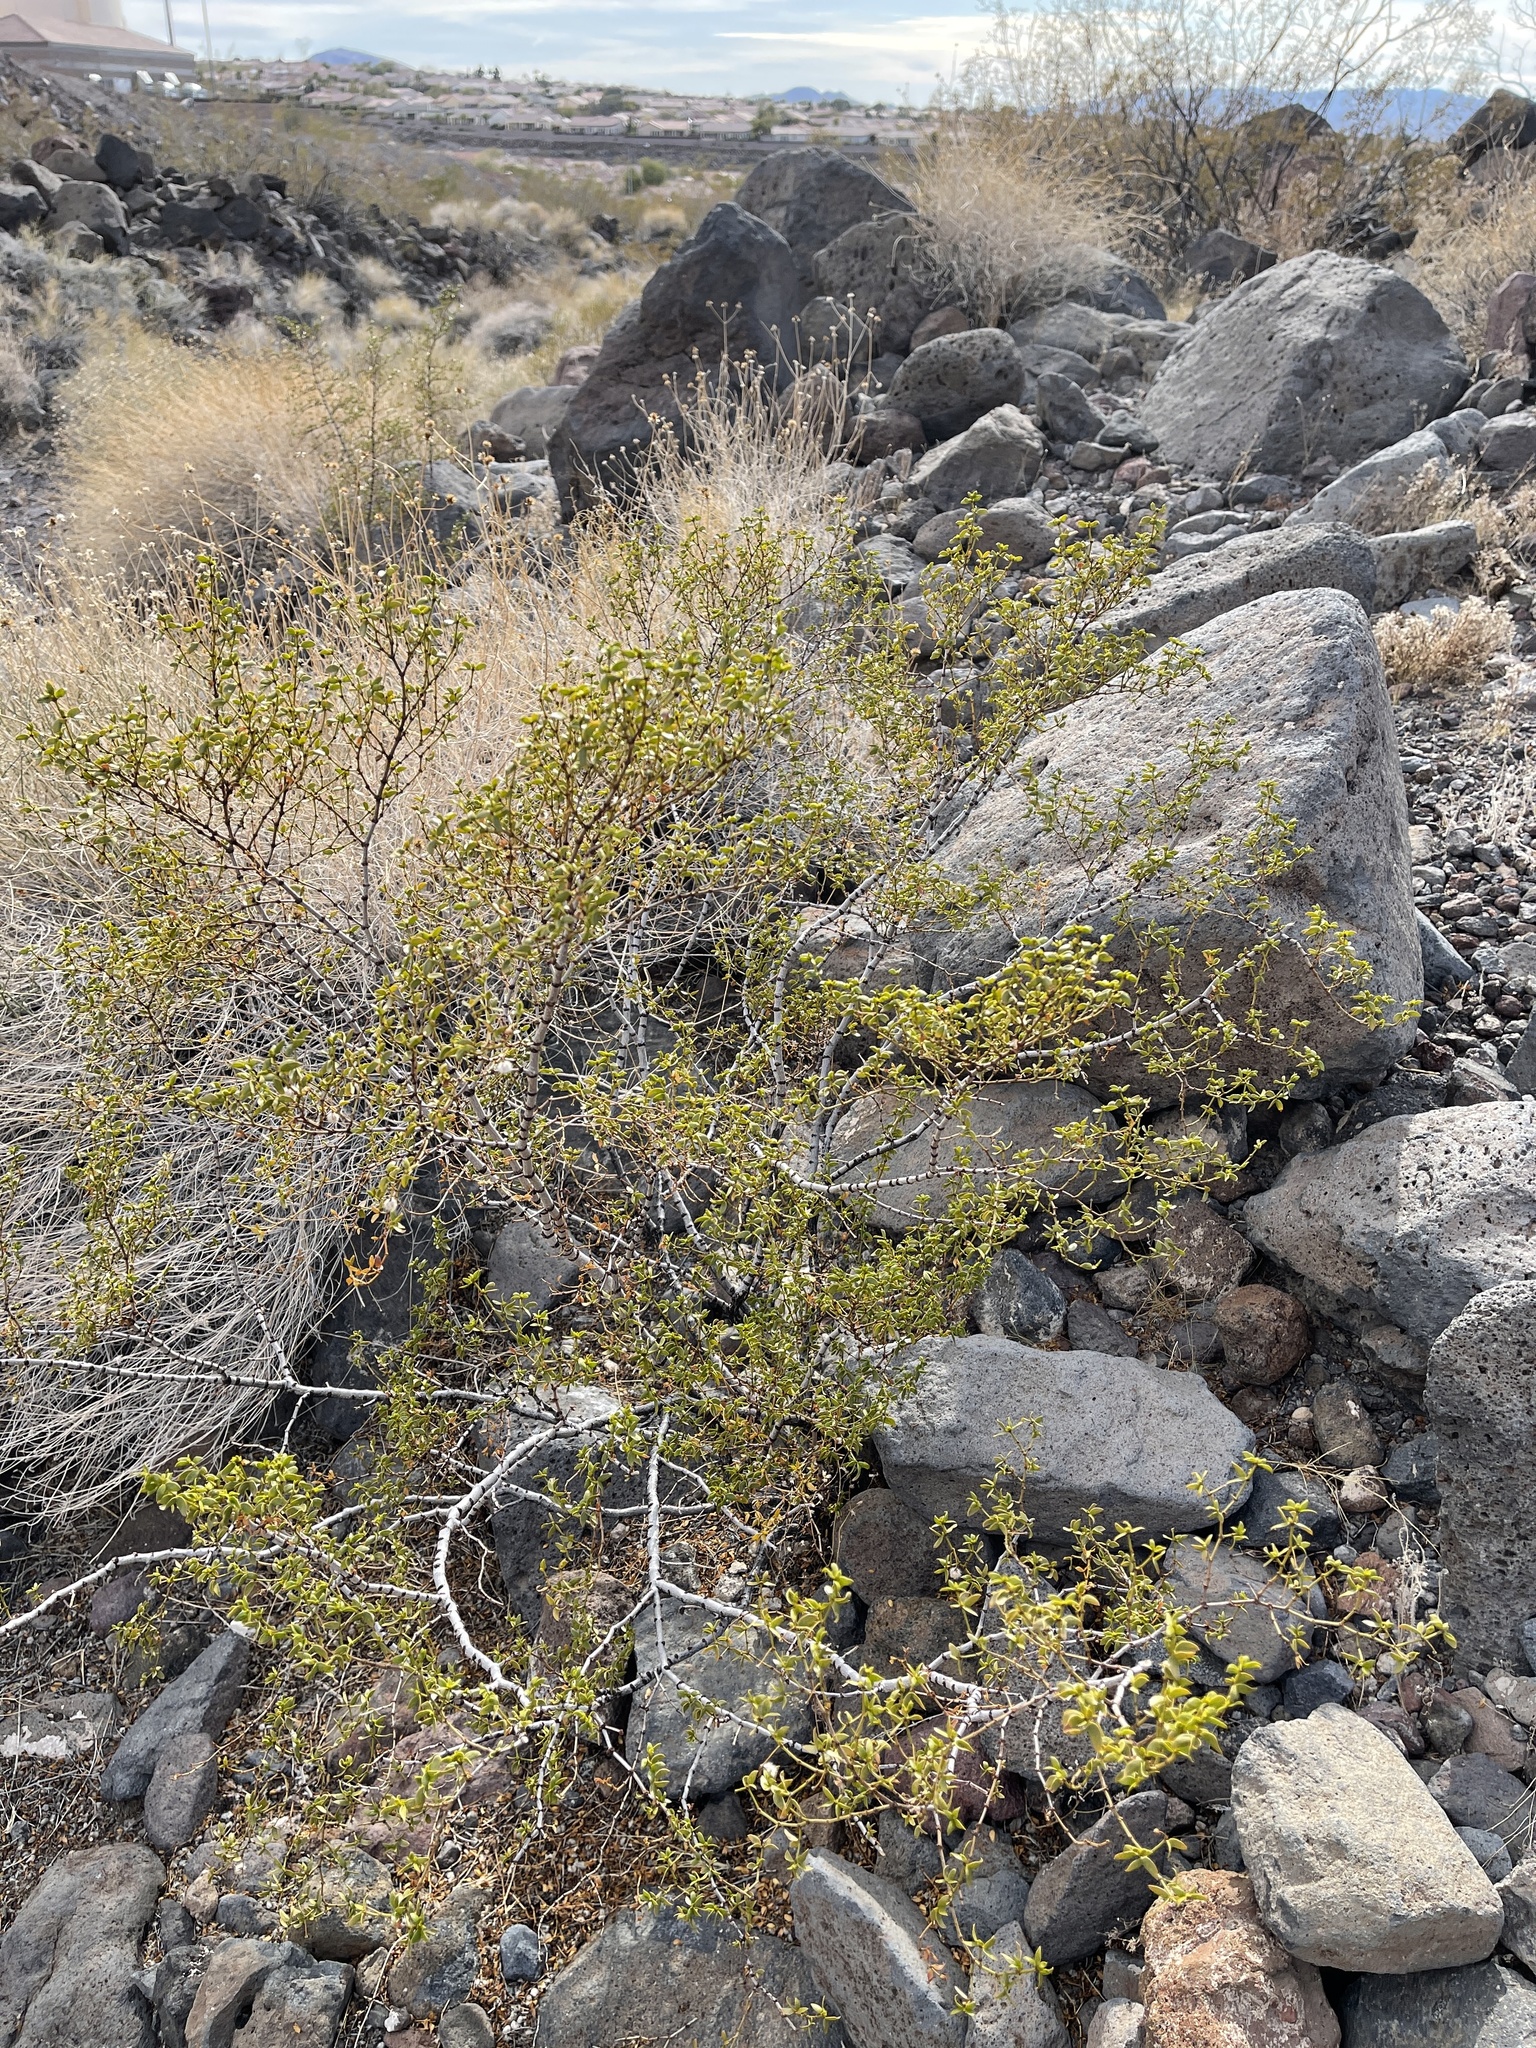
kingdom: Plantae
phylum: Tracheophyta
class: Magnoliopsida
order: Zygophyllales
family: Zygophyllaceae
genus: Larrea
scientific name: Larrea tridentata
